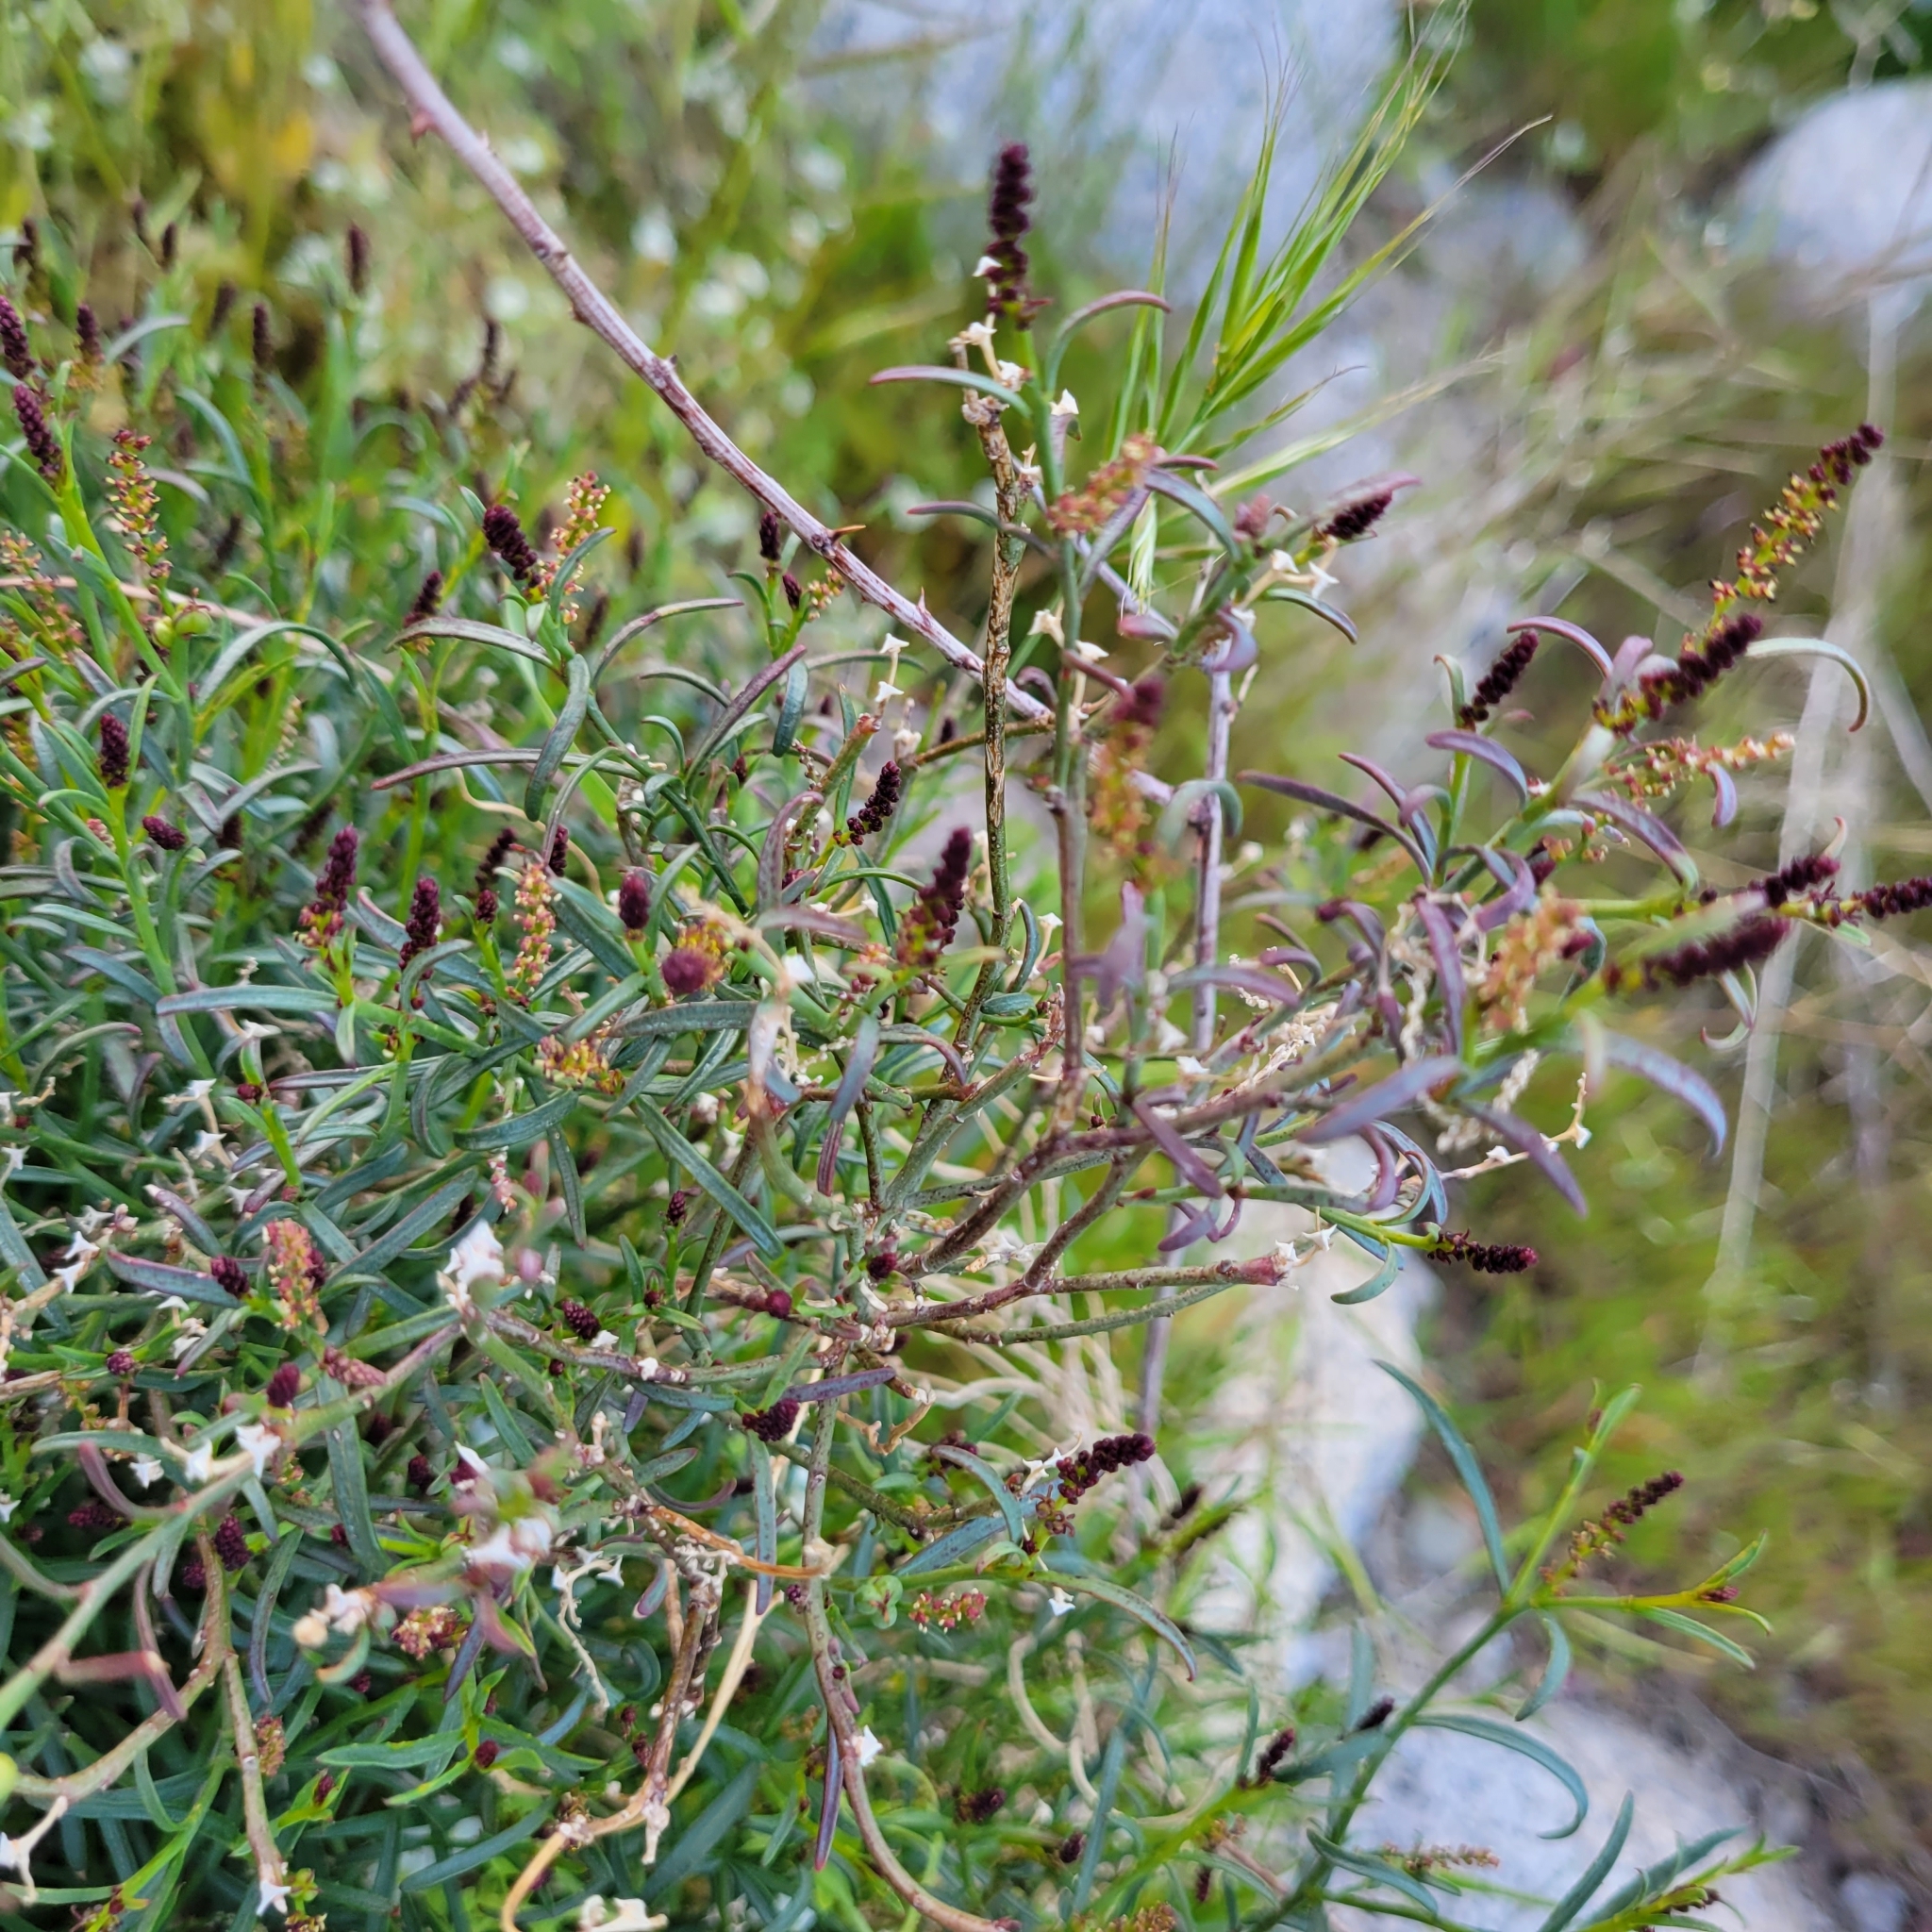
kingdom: Plantae
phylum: Tracheophyta
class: Magnoliopsida
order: Malpighiales
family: Euphorbiaceae
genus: Stillingia
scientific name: Stillingia linearifolia
